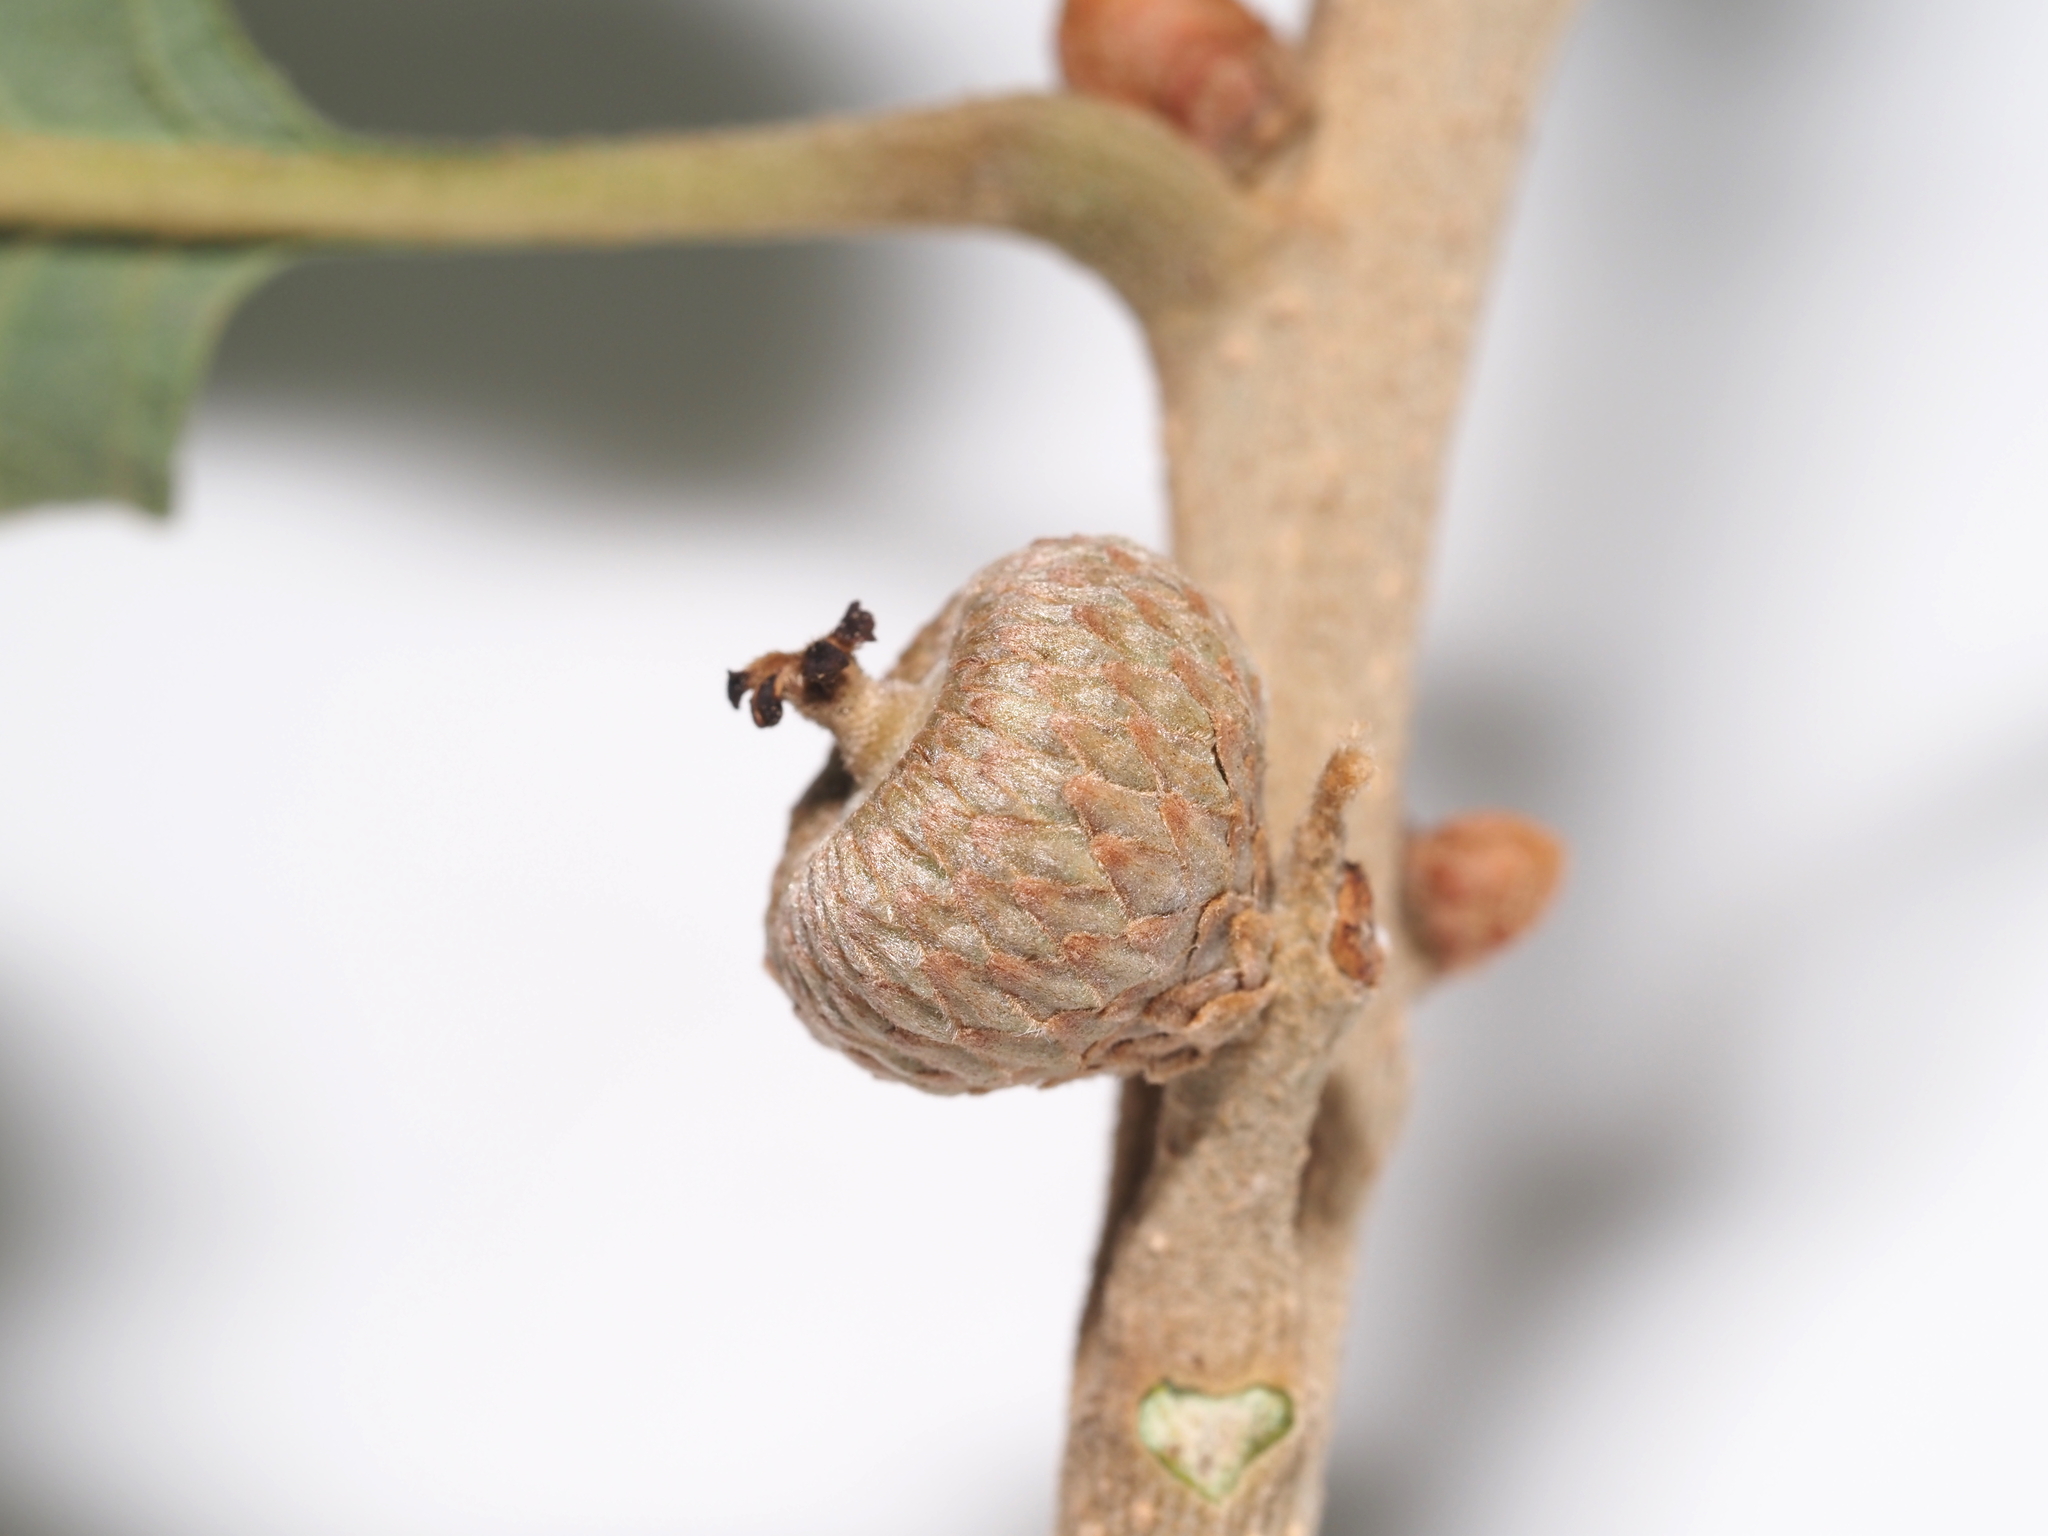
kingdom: Plantae
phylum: Tracheophyta
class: Magnoliopsida
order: Fagales
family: Fagaceae
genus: Quercus
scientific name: Quercus stellata
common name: Post oak
